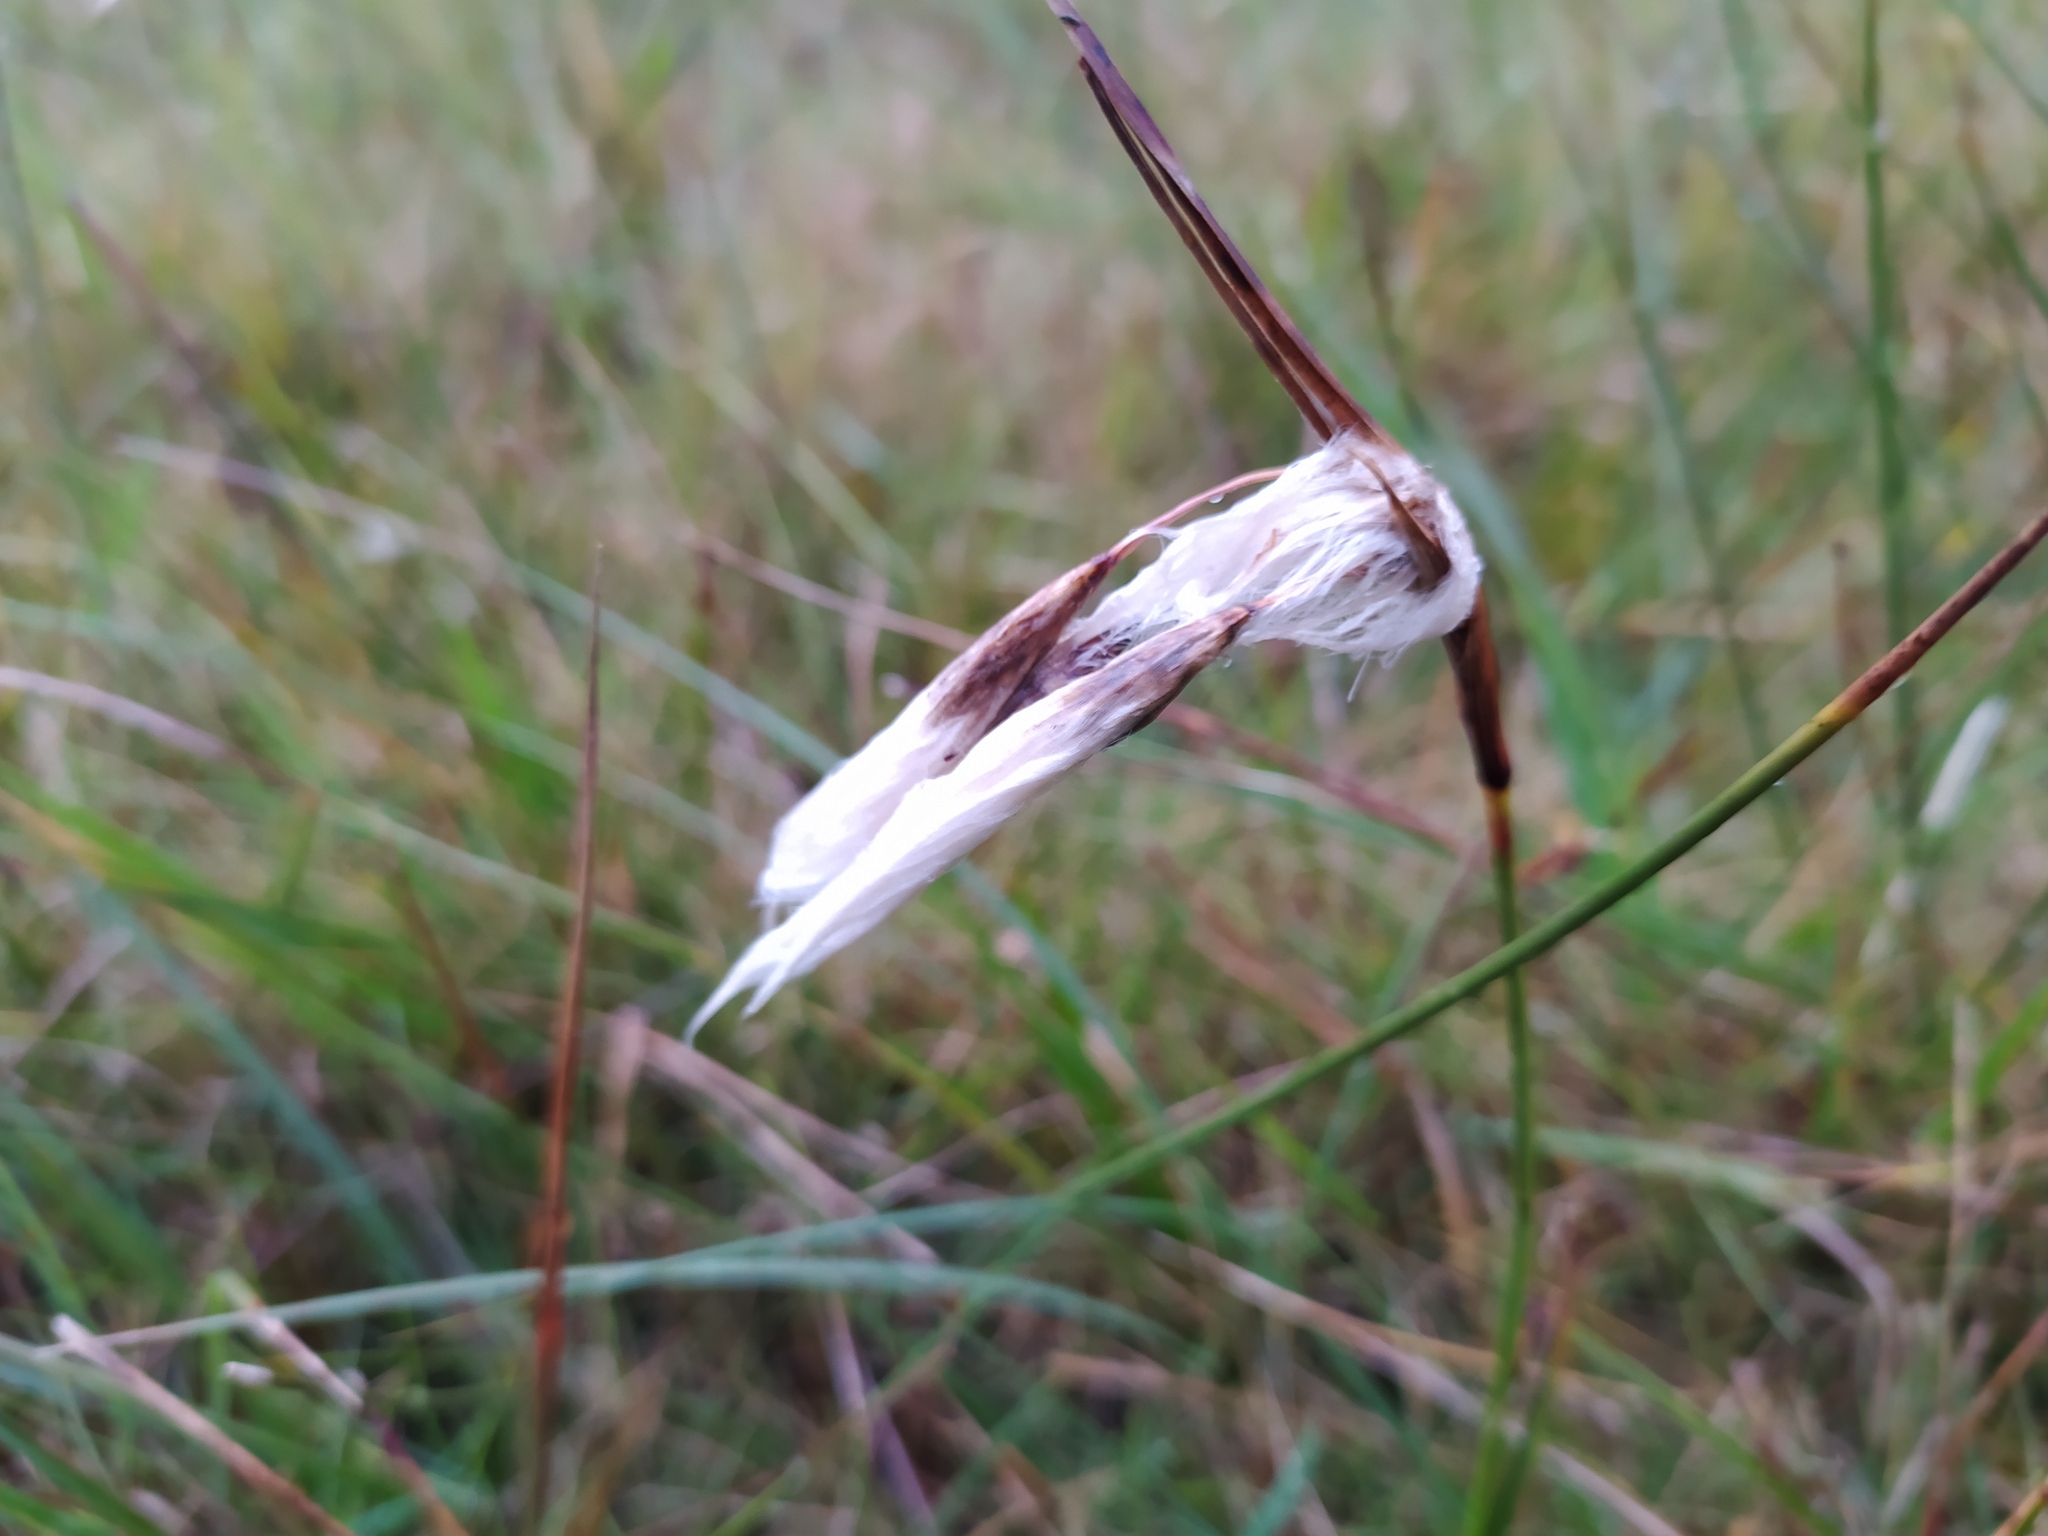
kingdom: Plantae
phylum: Tracheophyta
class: Liliopsida
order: Poales
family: Cyperaceae
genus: Eriophorum
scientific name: Eriophorum angustifolium
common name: Common cottongrass
